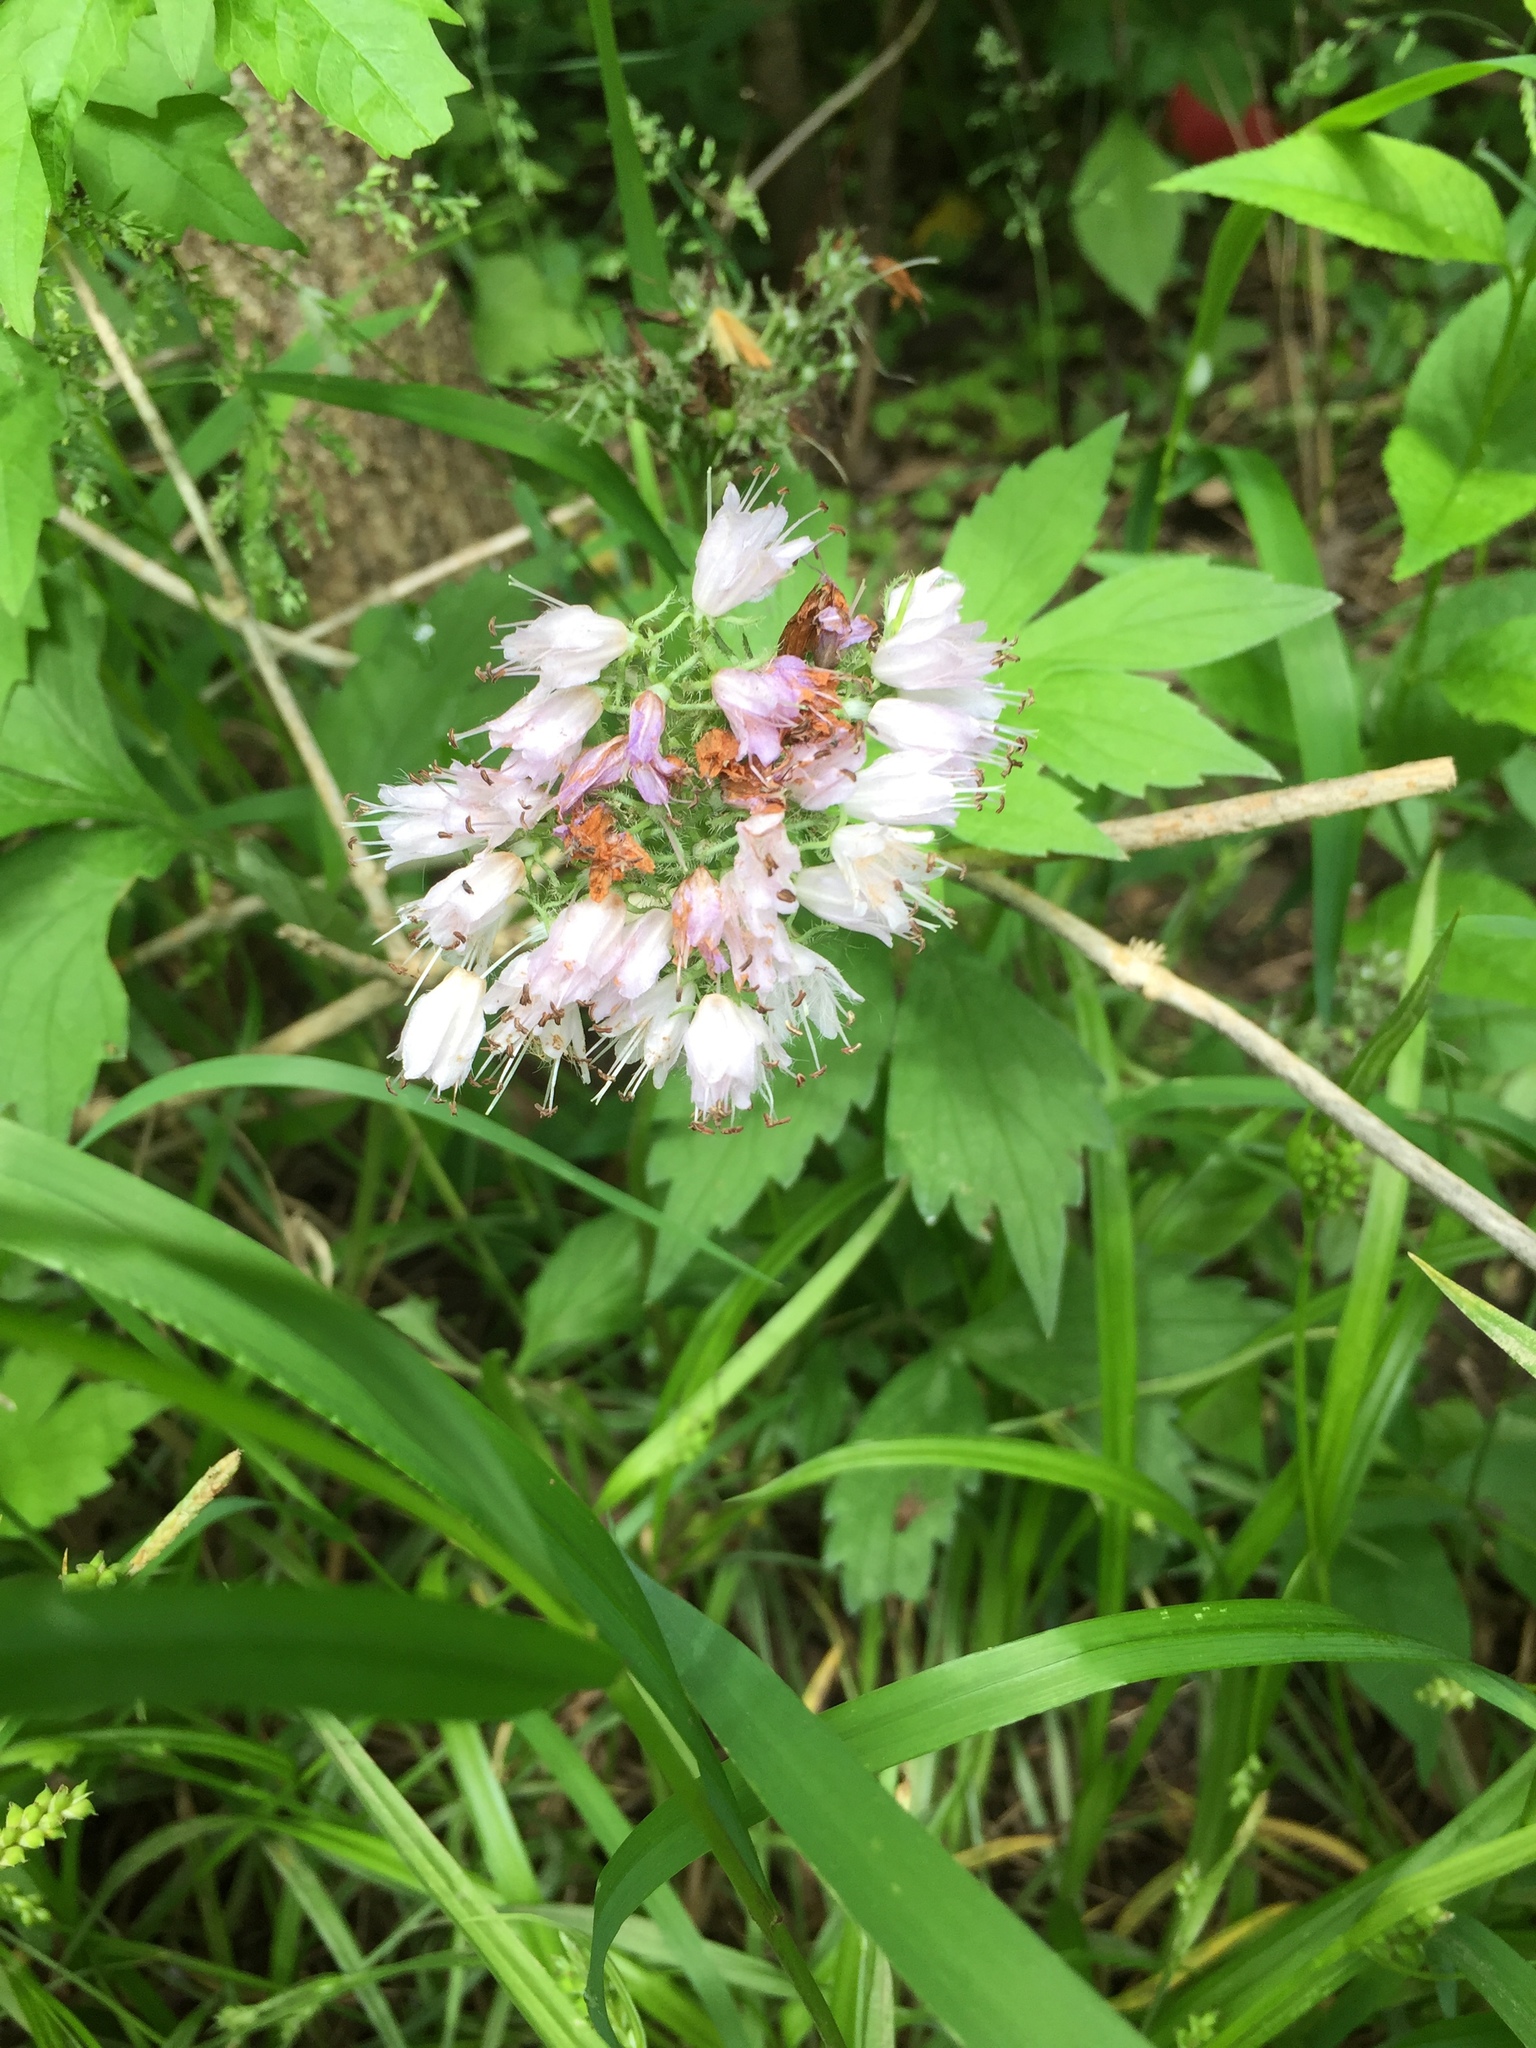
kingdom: Plantae
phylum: Tracheophyta
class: Magnoliopsida
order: Boraginales
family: Hydrophyllaceae
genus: Hydrophyllum
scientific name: Hydrophyllum virginianum
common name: Virginia waterleaf
